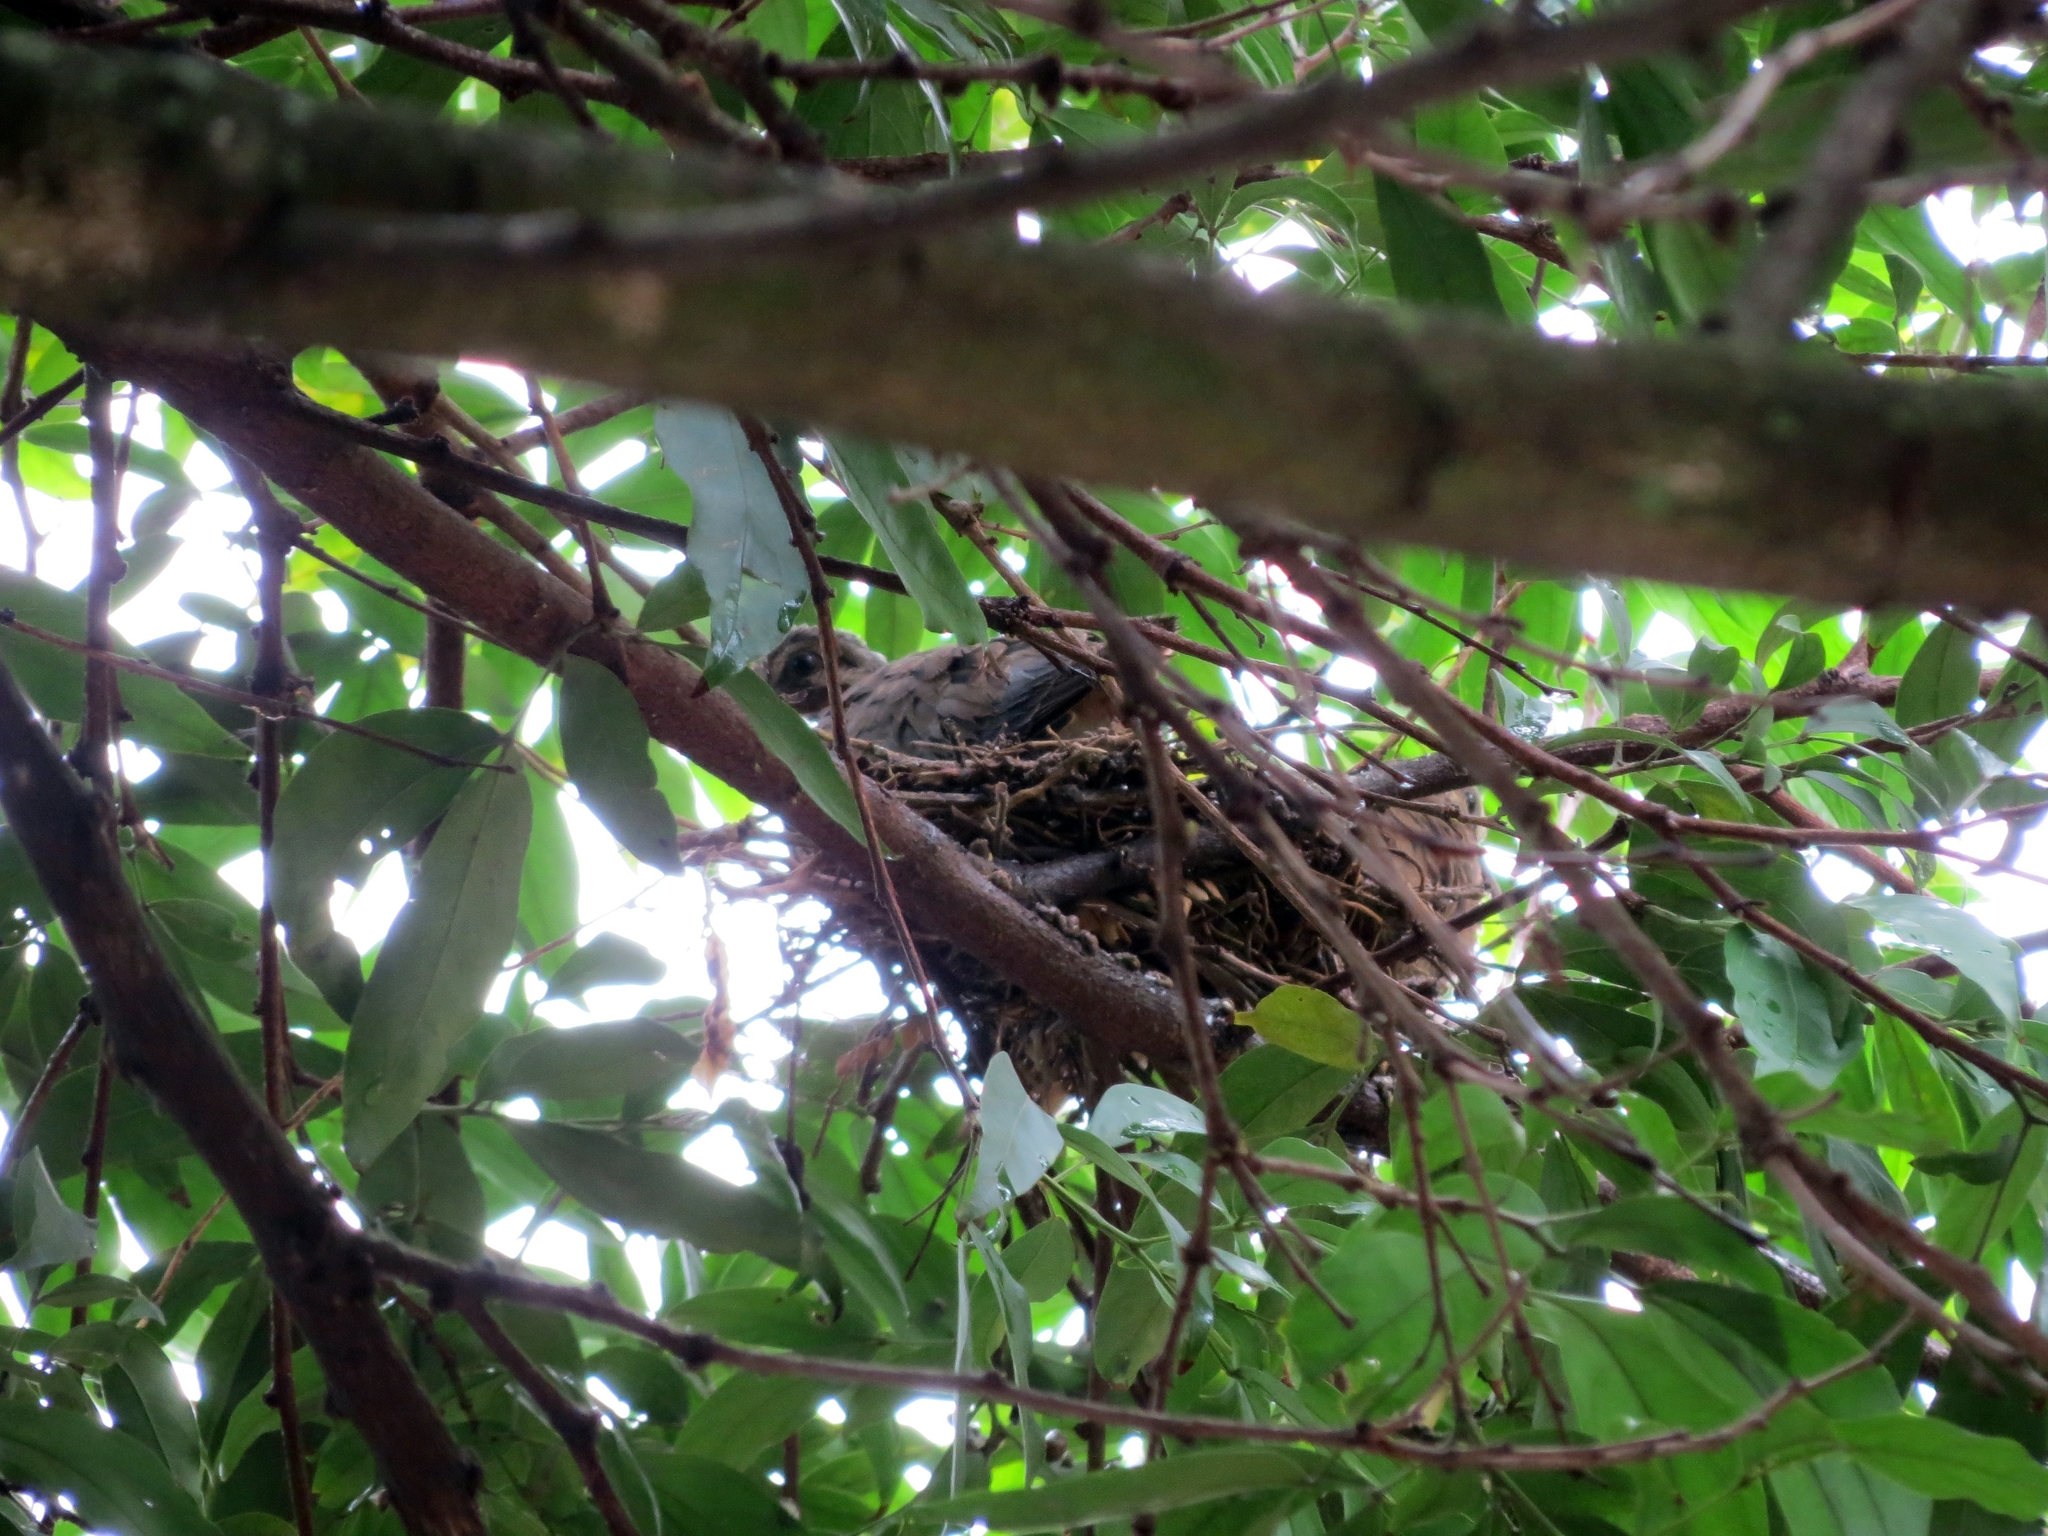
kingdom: Animalia
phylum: Chordata
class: Aves
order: Columbiformes
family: Columbidae
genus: Zenaida
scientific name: Zenaida auriculata
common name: Eared dove
